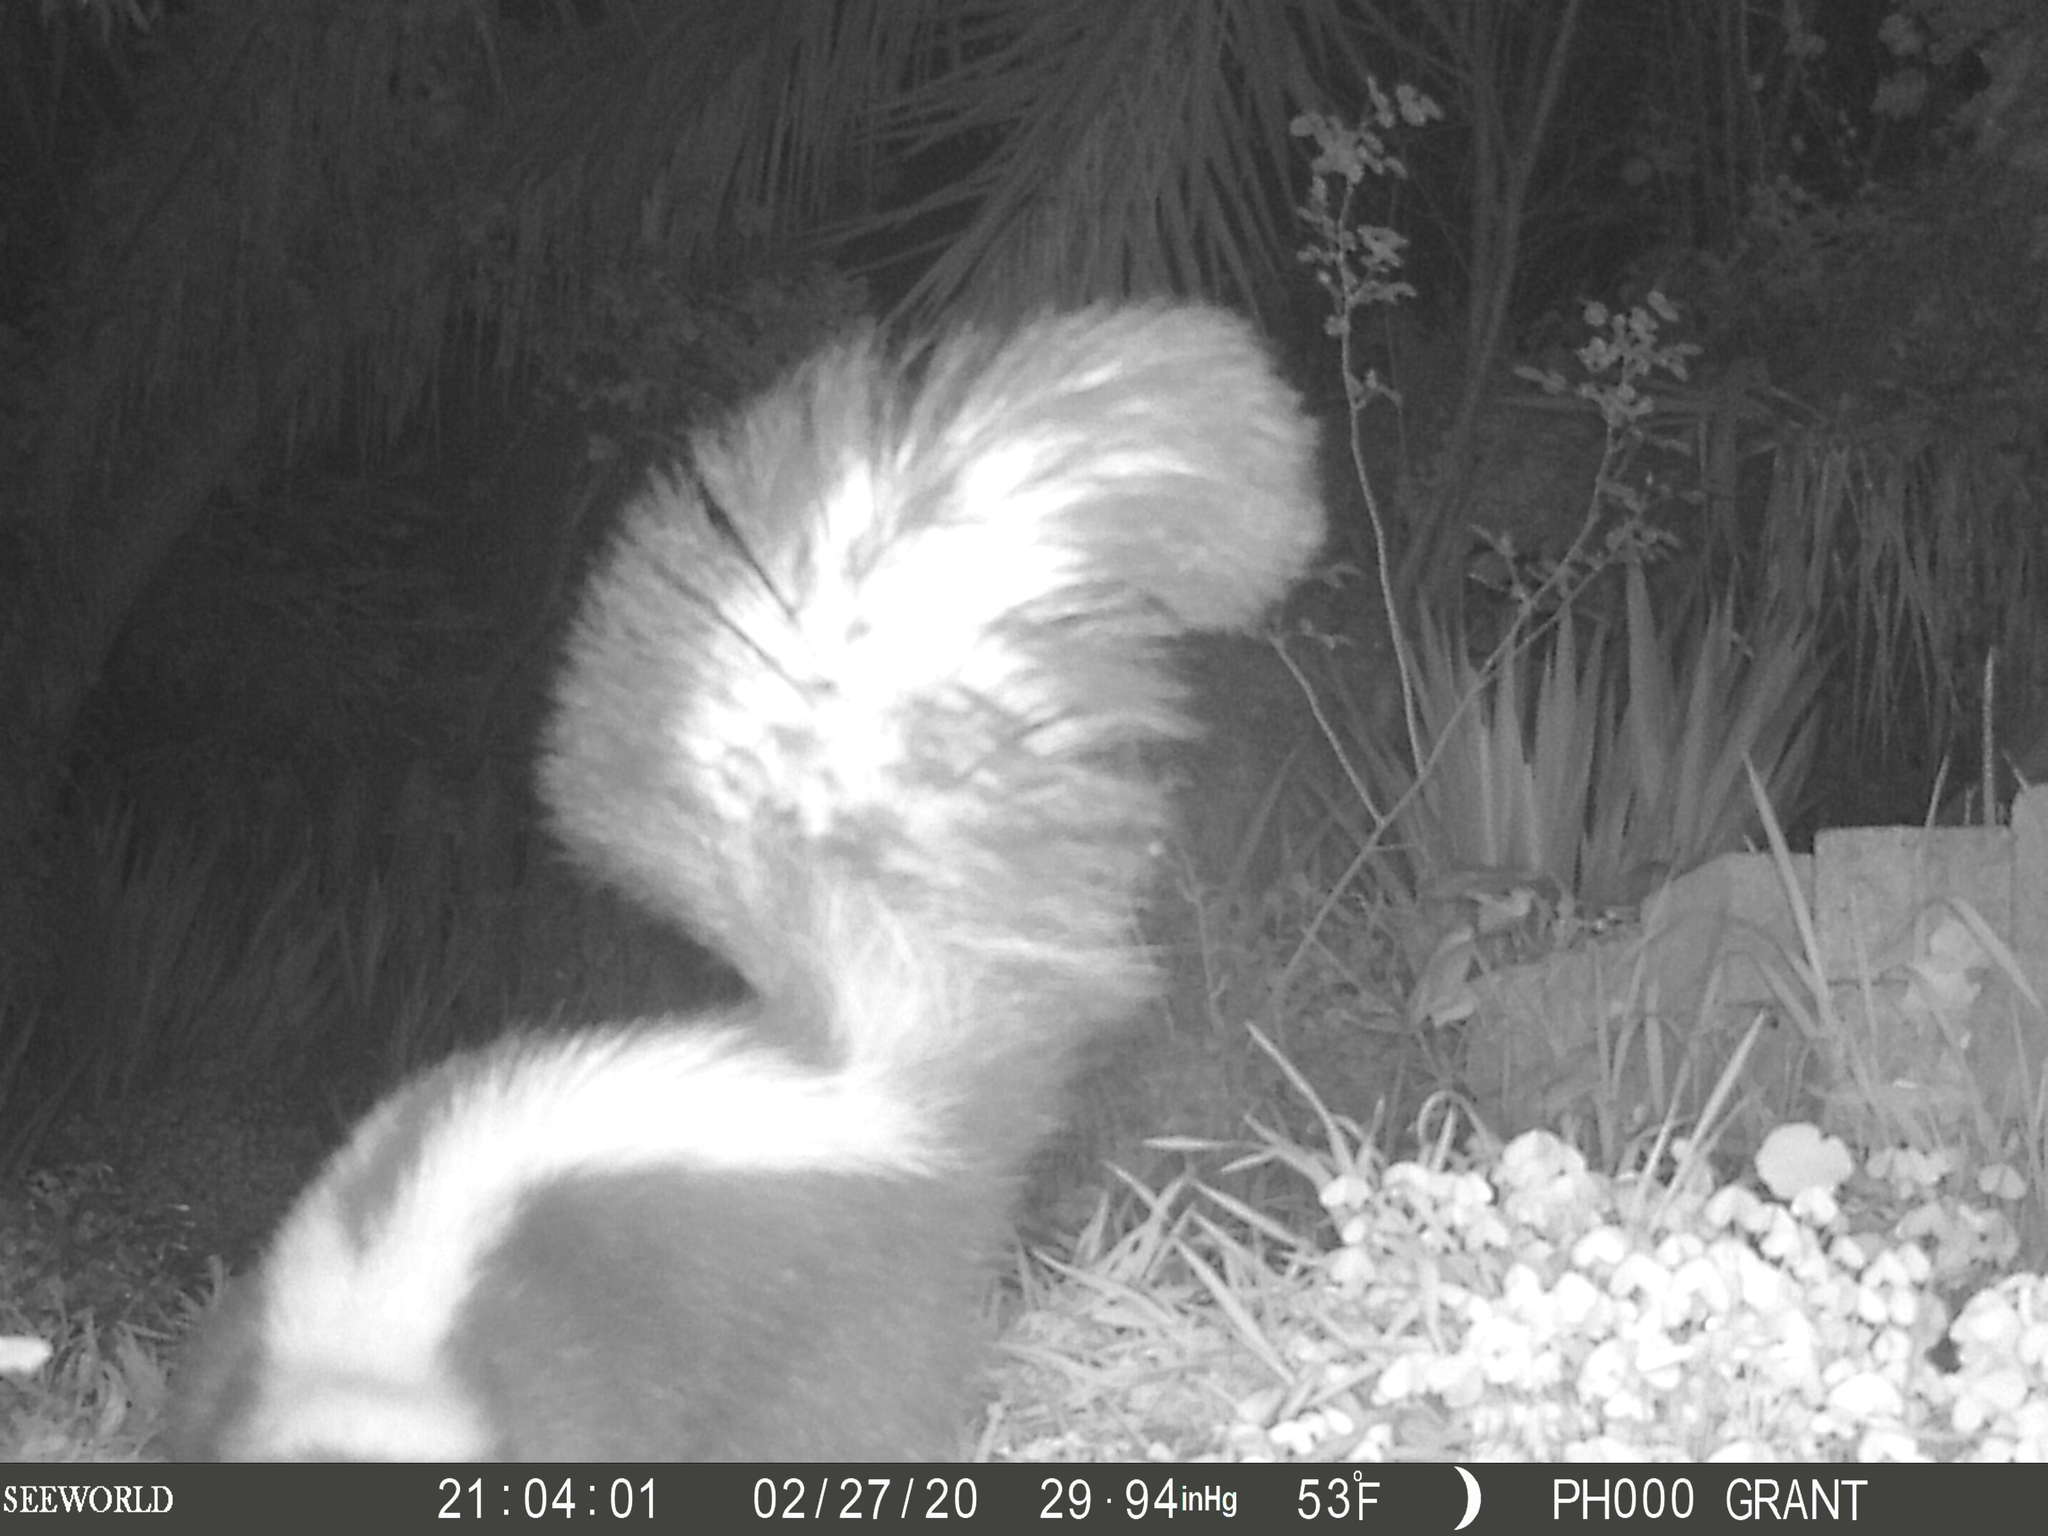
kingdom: Animalia
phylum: Chordata
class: Mammalia
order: Carnivora
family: Mephitidae
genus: Mephitis
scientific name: Mephitis mephitis
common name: Striped skunk
